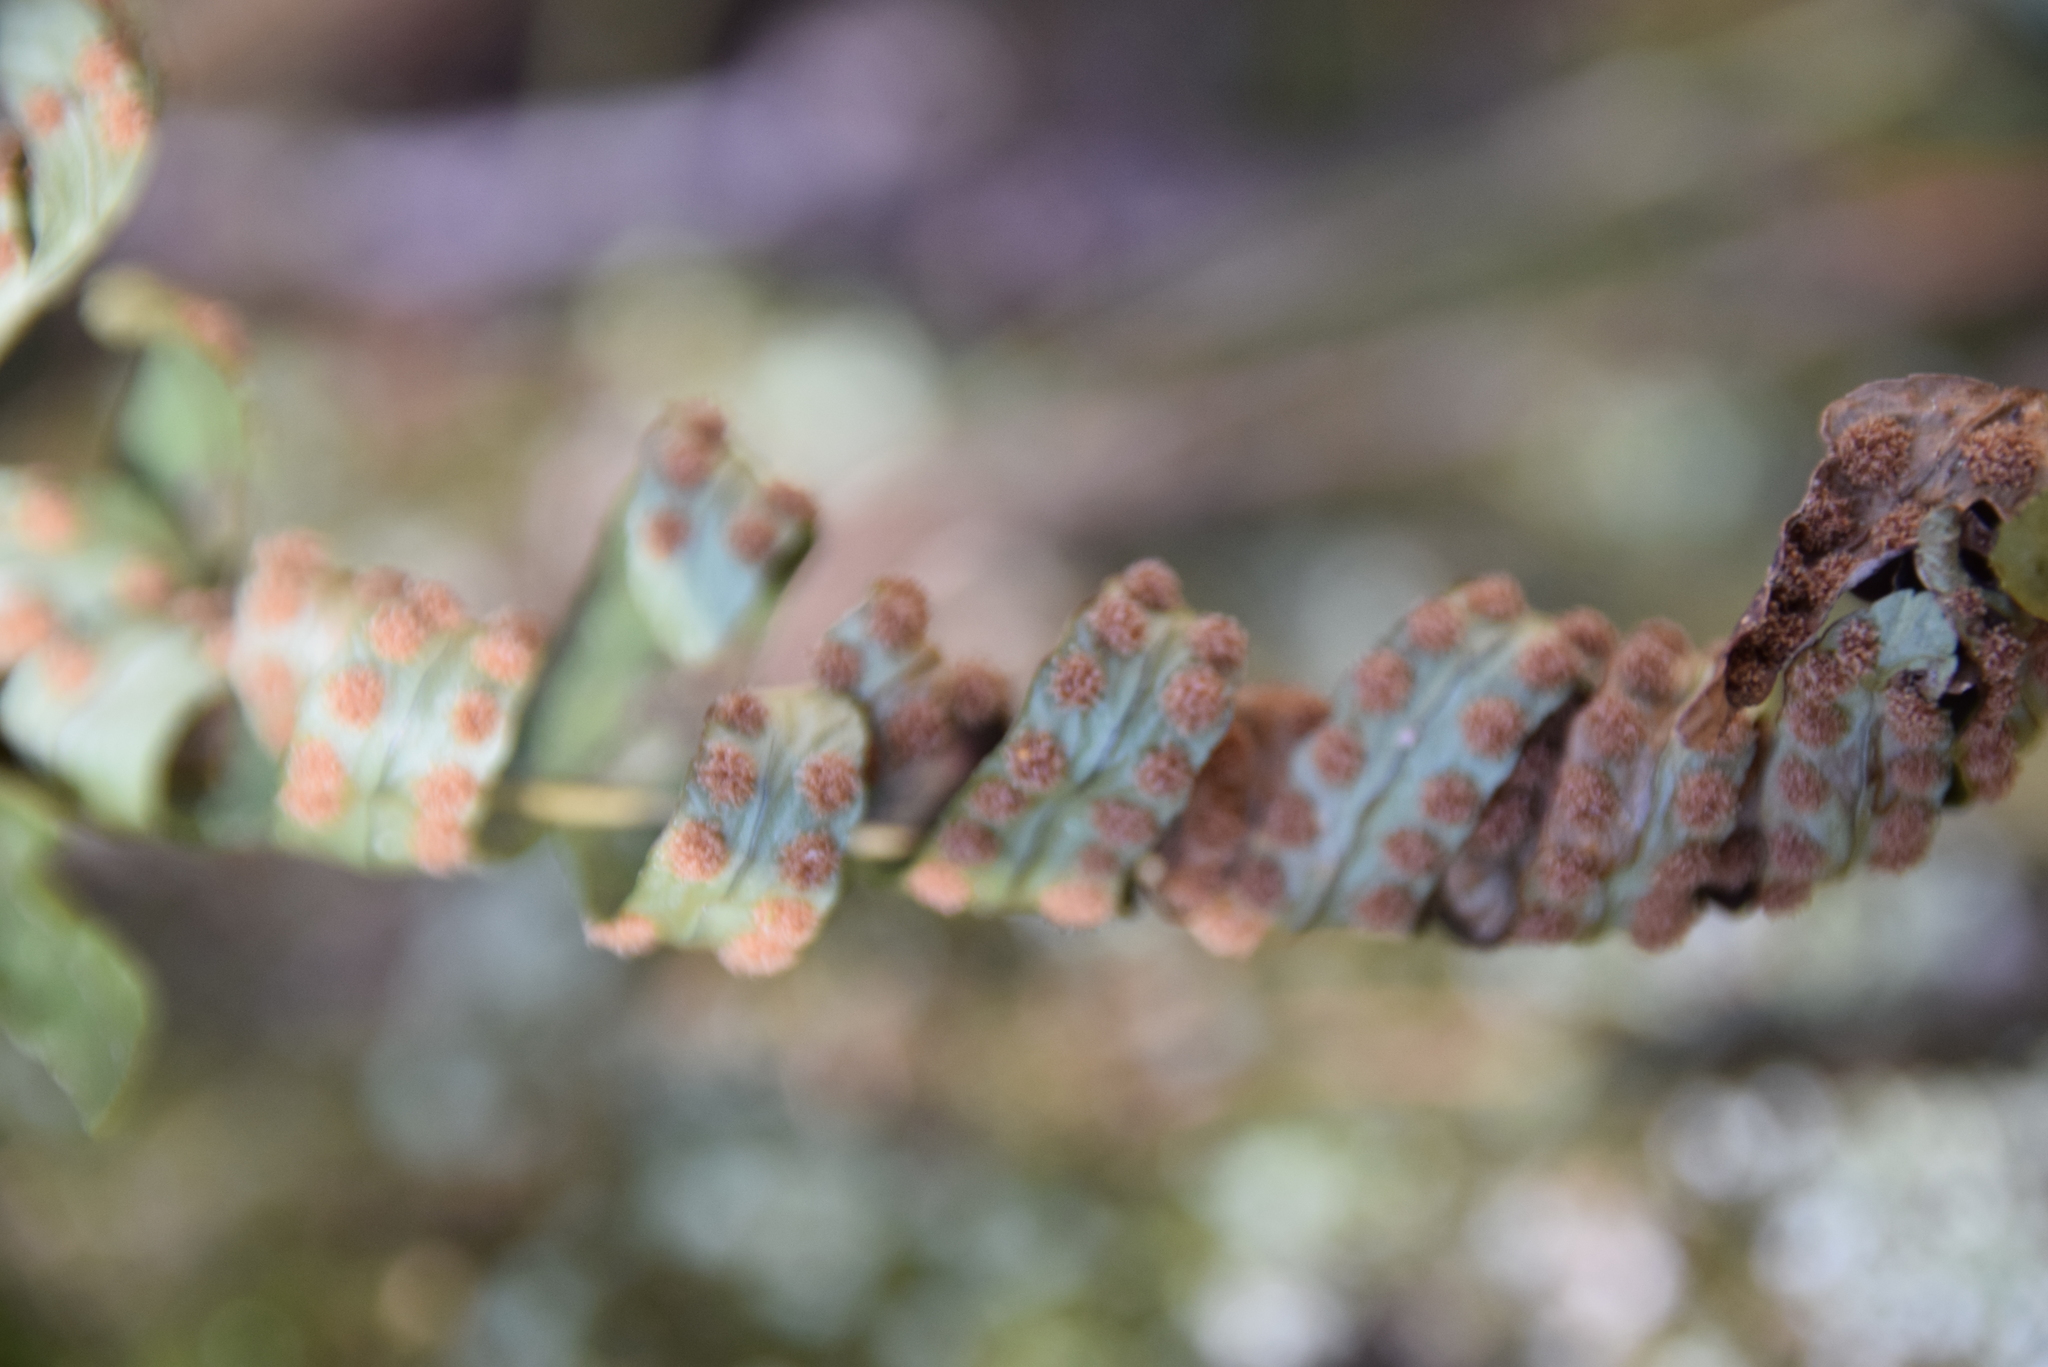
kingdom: Plantae
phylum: Tracheophyta
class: Polypodiopsida
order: Polypodiales
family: Polypodiaceae
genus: Polypodium
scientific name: Polypodium virginianum
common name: American wall fern
